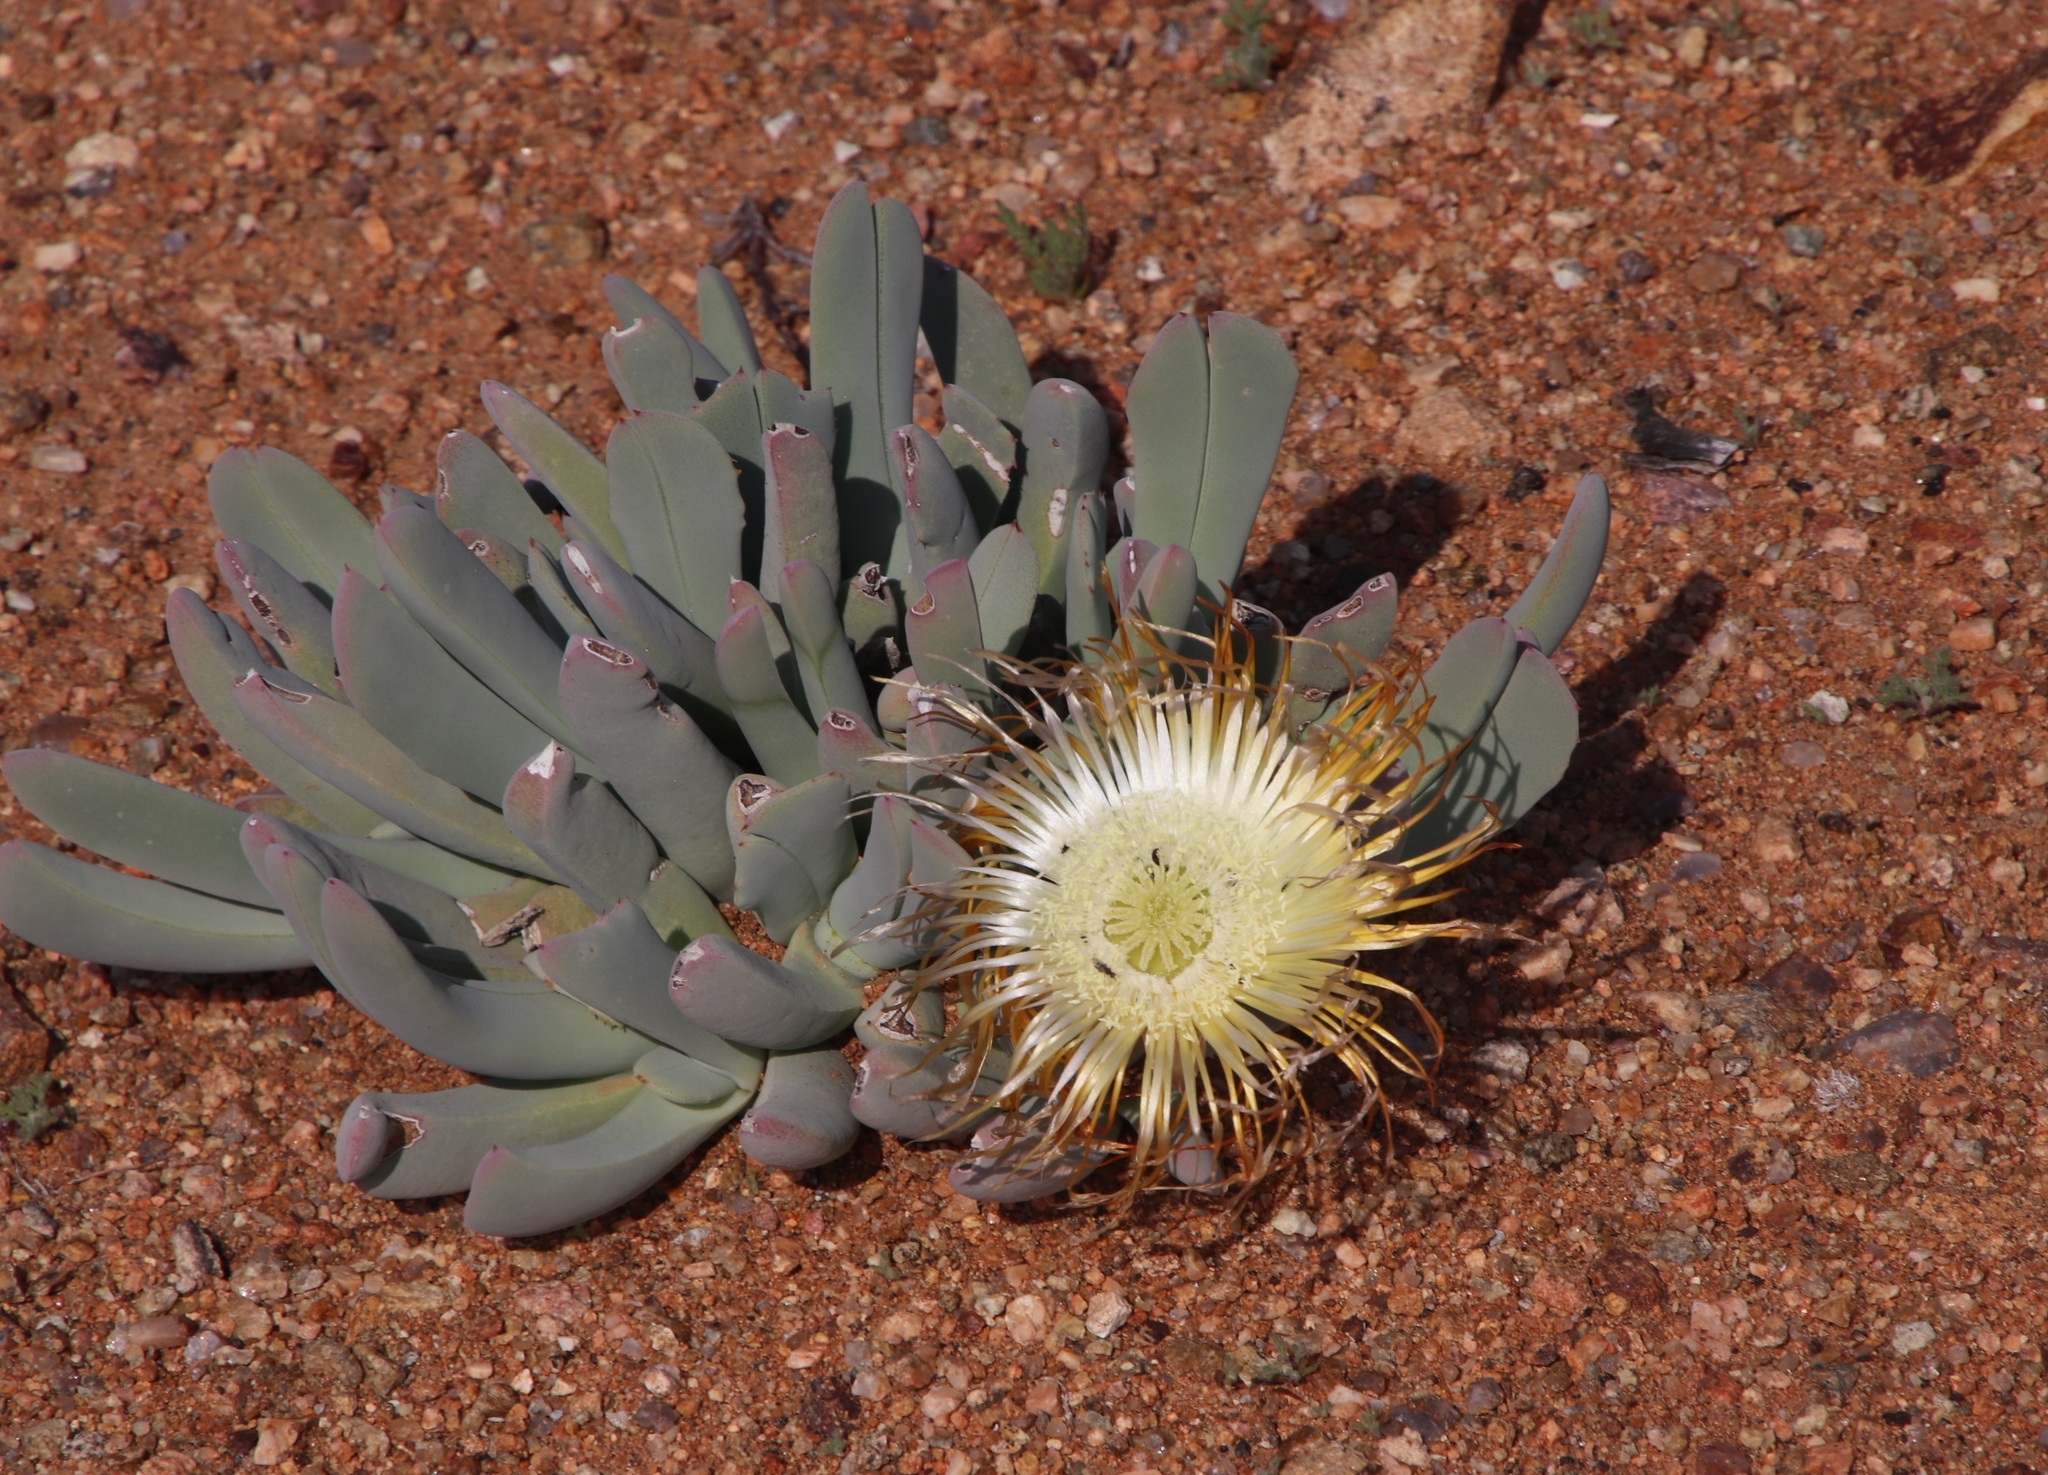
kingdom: Plantae
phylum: Tracheophyta
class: Magnoliopsida
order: Caryophyllales
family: Aizoaceae
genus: Cheiridopsis
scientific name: Cheiridopsis denticulata
